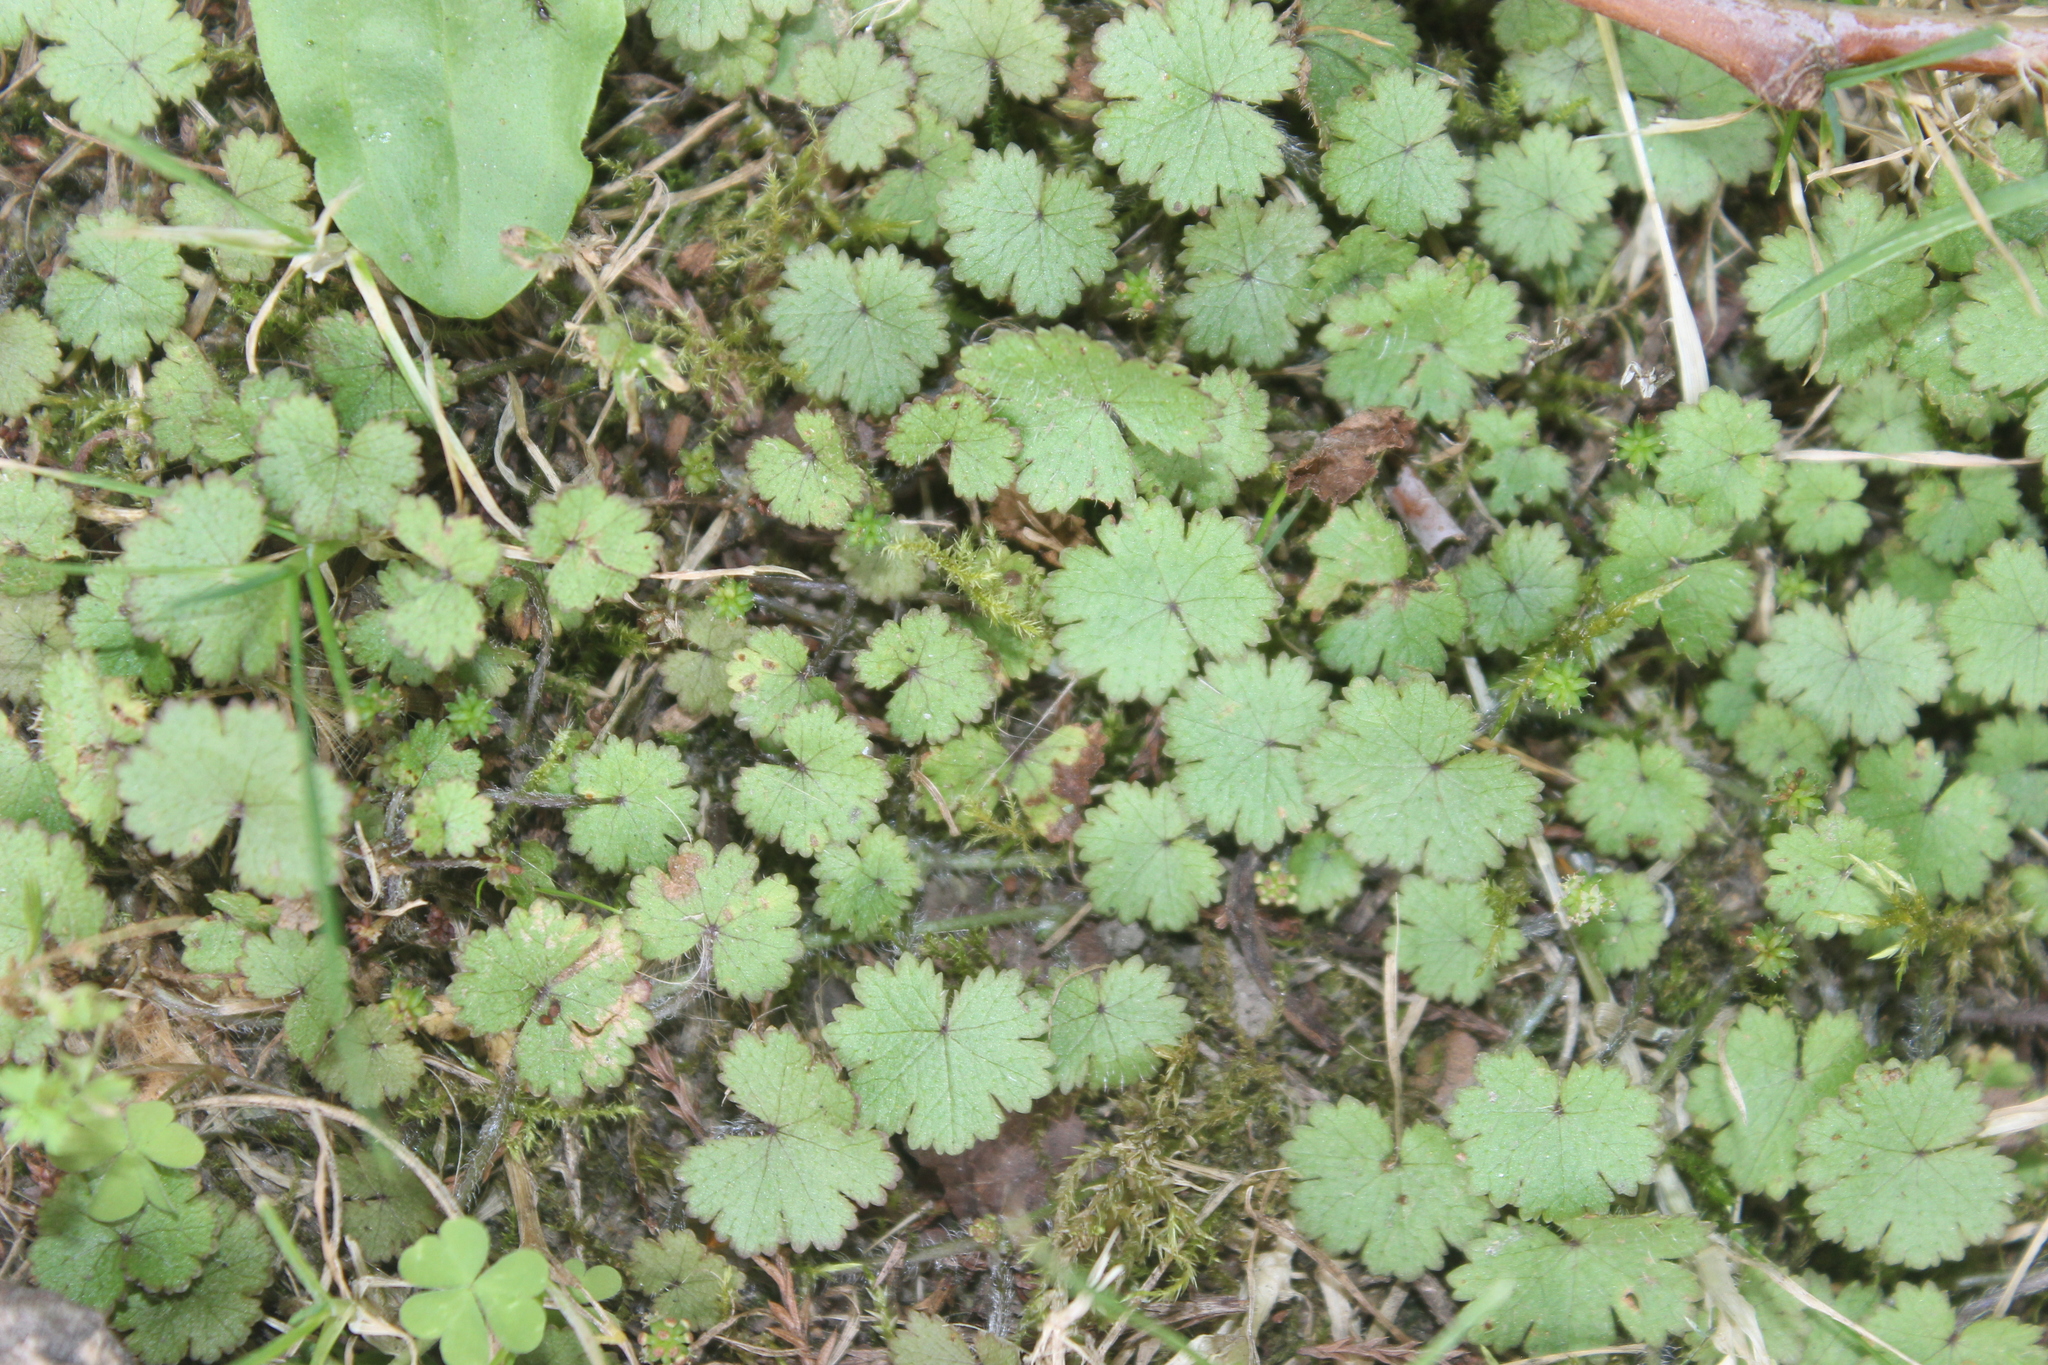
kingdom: Plantae
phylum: Tracheophyta
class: Magnoliopsida
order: Apiales
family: Araliaceae
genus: Hydrocotyle
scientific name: Hydrocotyle moschata
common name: Hairy pennywort
